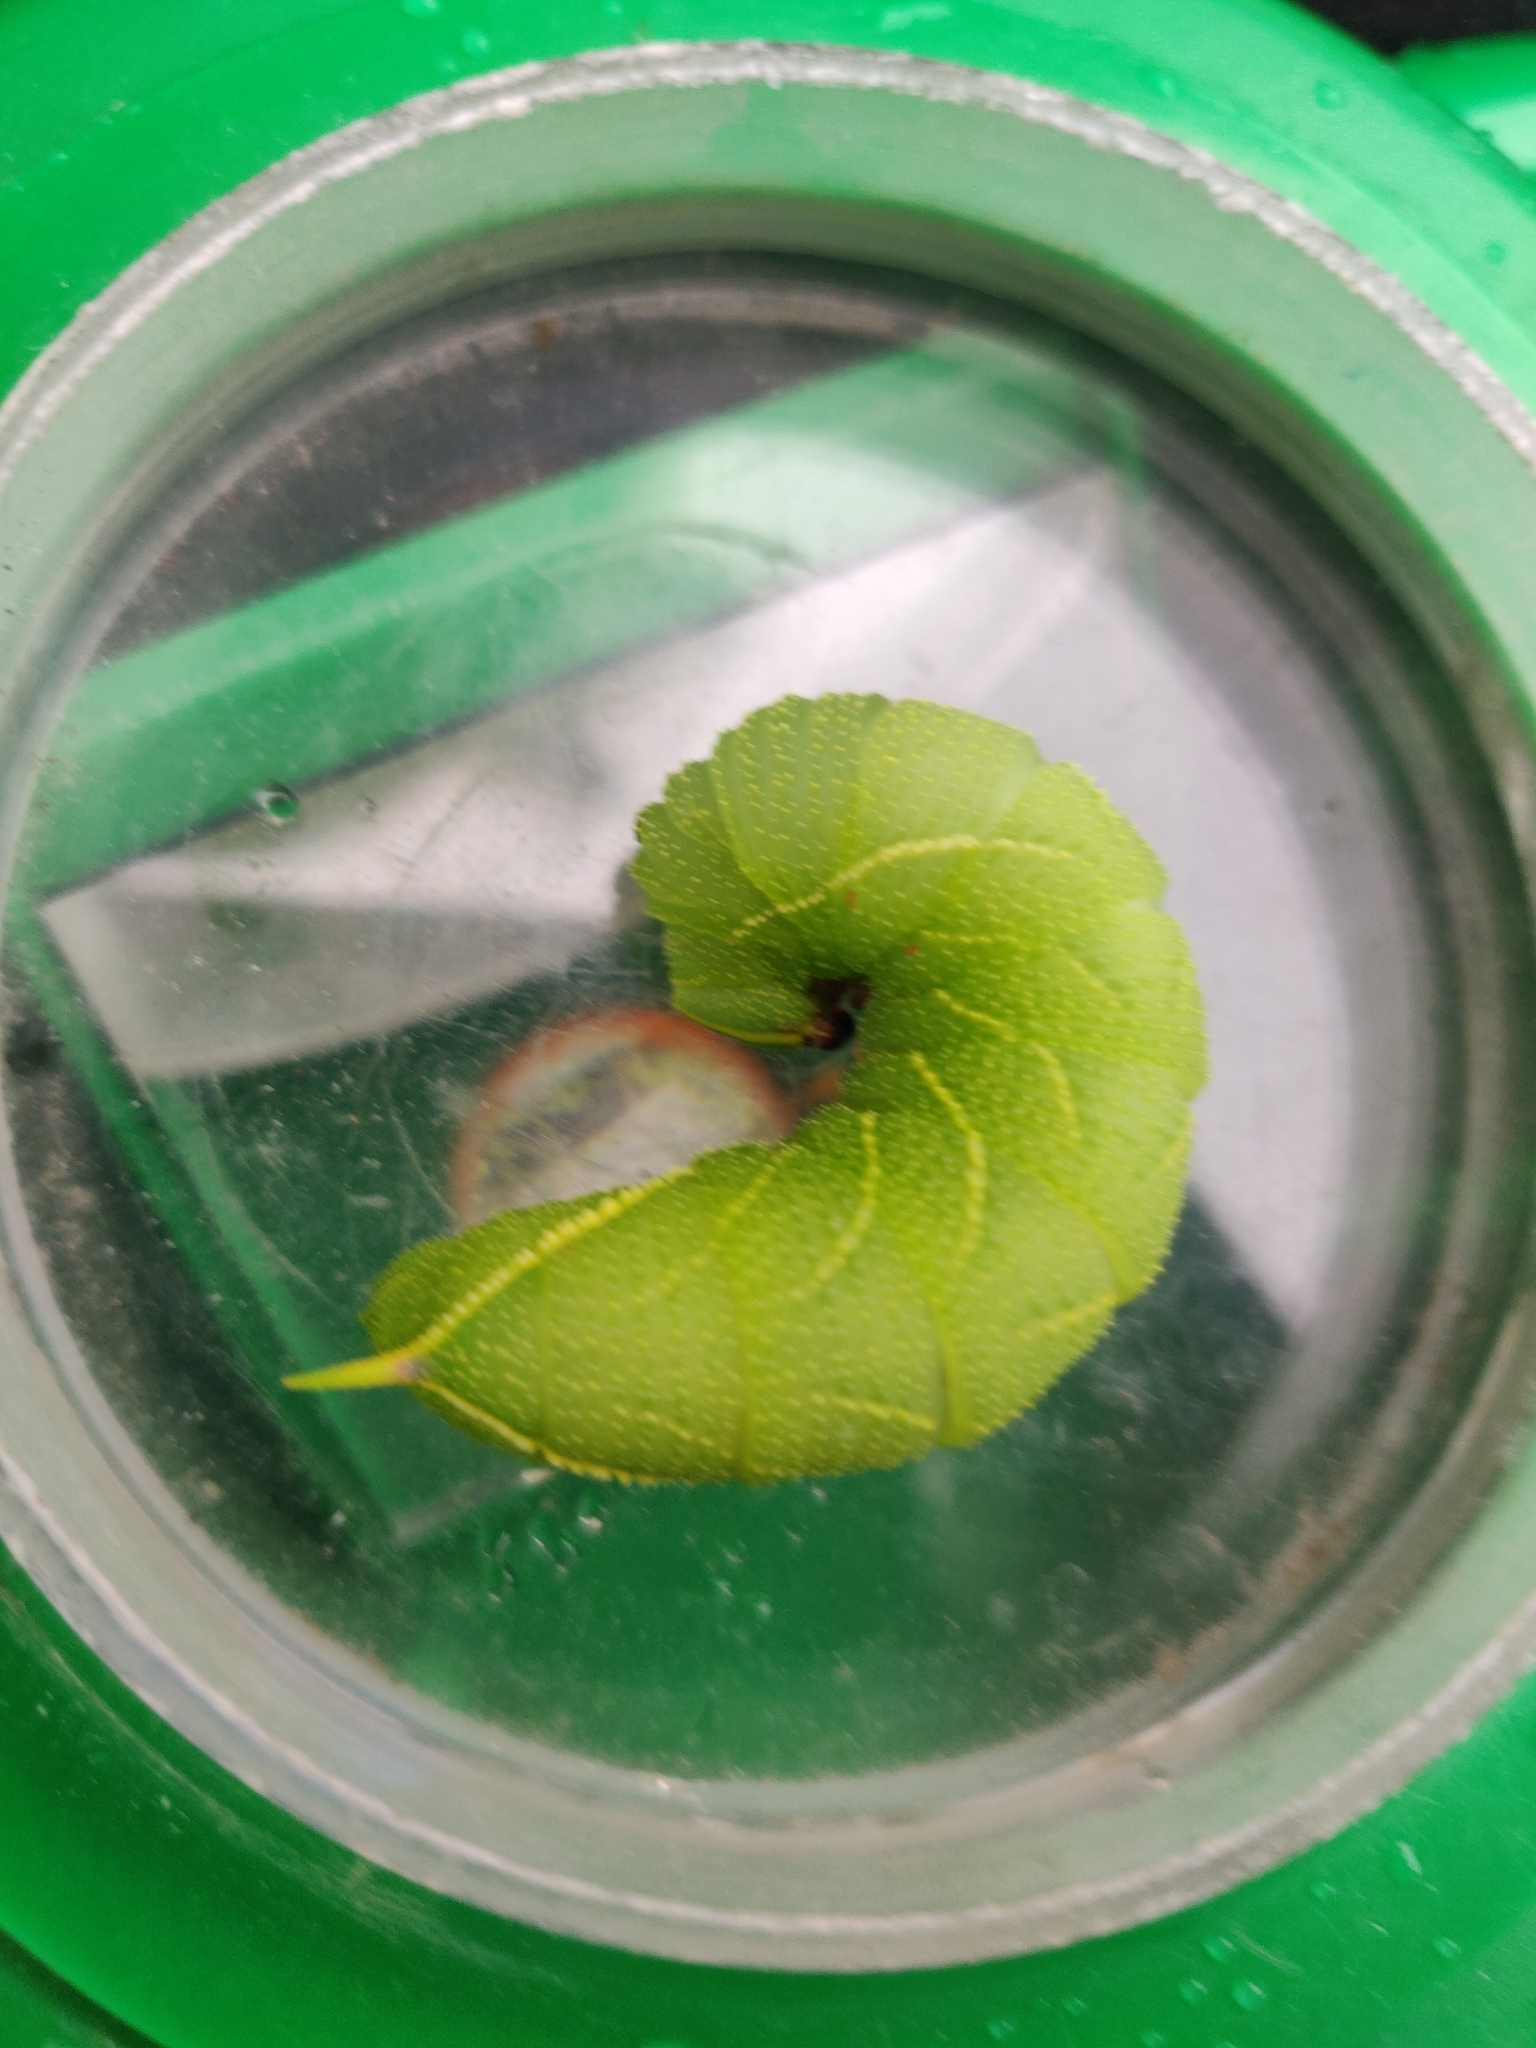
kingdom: Animalia
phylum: Arthropoda
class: Insecta
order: Lepidoptera
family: Sphingidae
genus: Laothoe
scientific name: Laothoe populi
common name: Poplar hawk-moth
